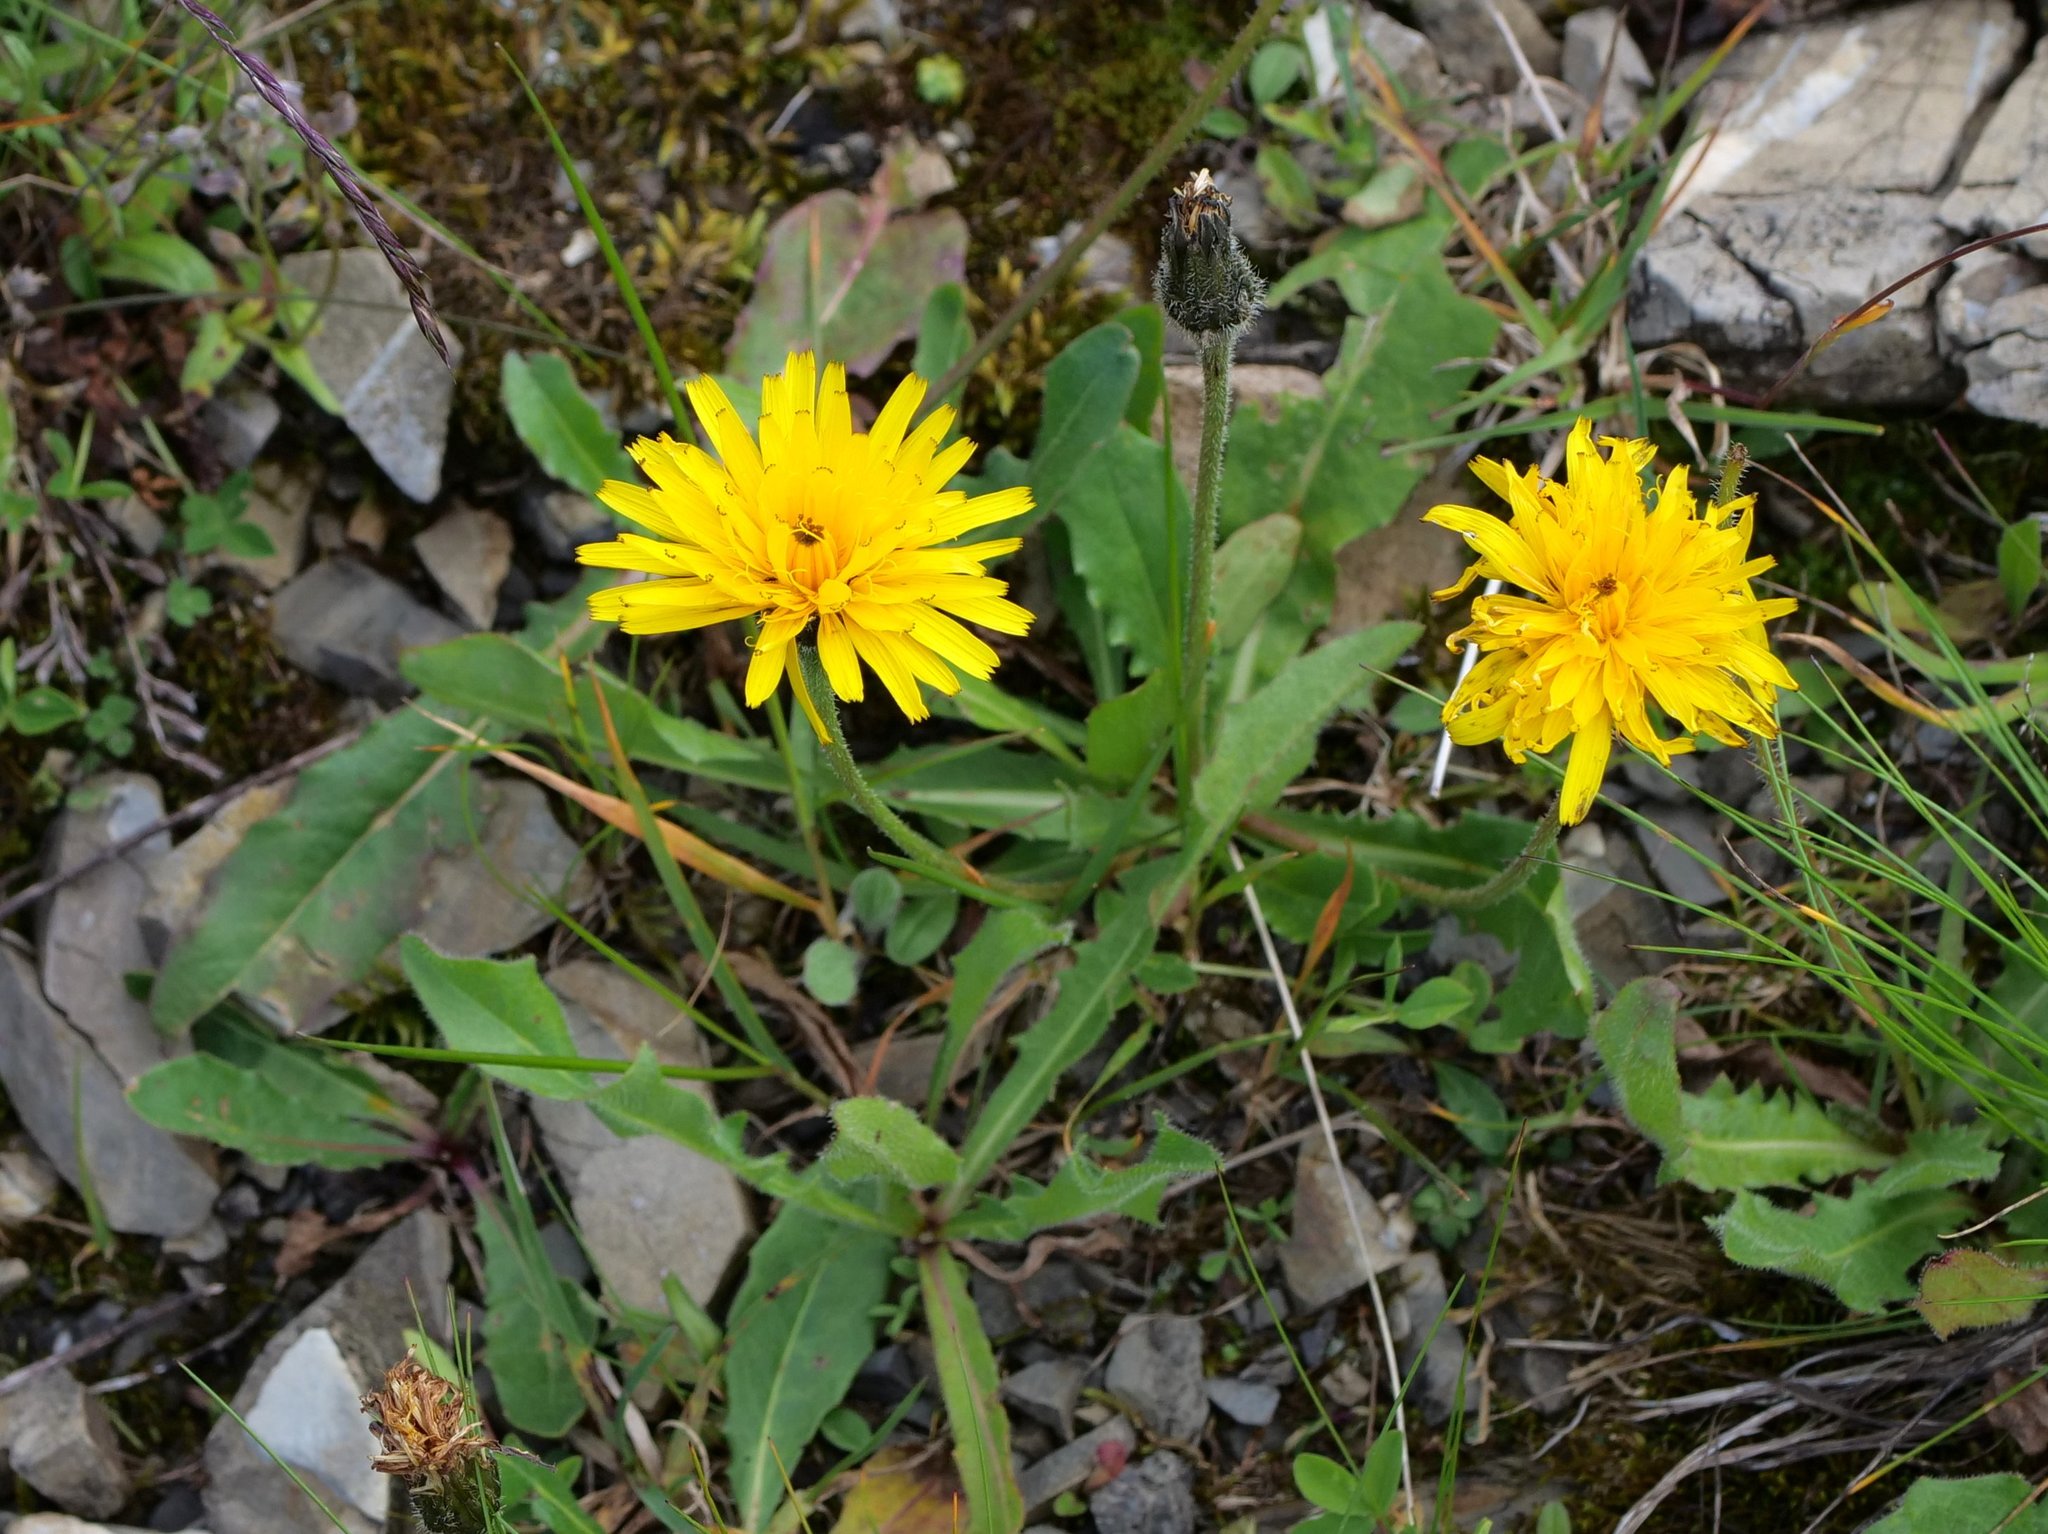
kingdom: Plantae
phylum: Tracheophyta
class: Magnoliopsida
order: Asterales
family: Asteraceae
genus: Leontodon
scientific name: Leontodon hispidus
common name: Rough hawkbit
